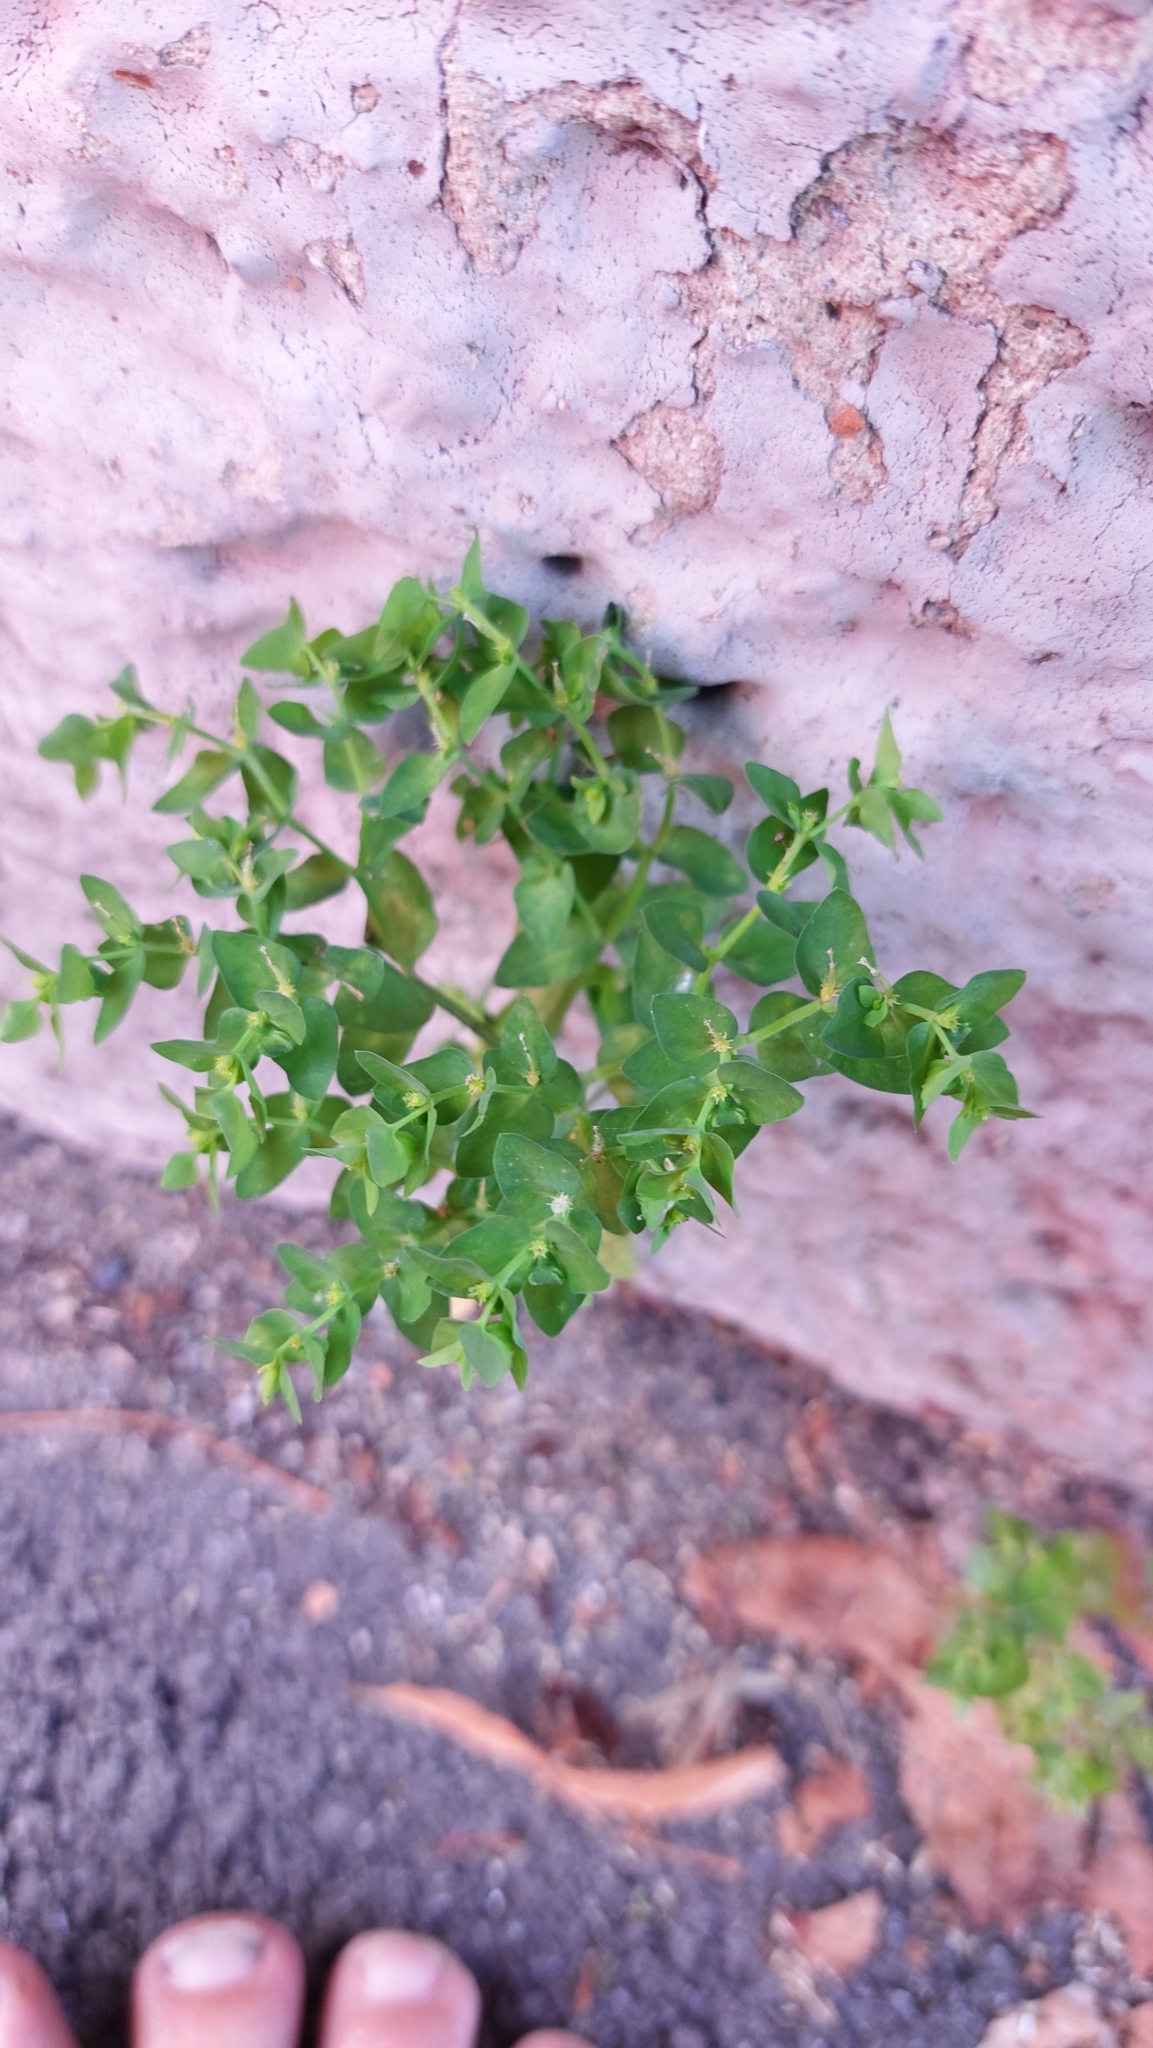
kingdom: Plantae
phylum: Tracheophyta
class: Magnoliopsida
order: Malpighiales
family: Euphorbiaceae
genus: Euphorbia
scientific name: Euphorbia peplus
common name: Petty spurge
